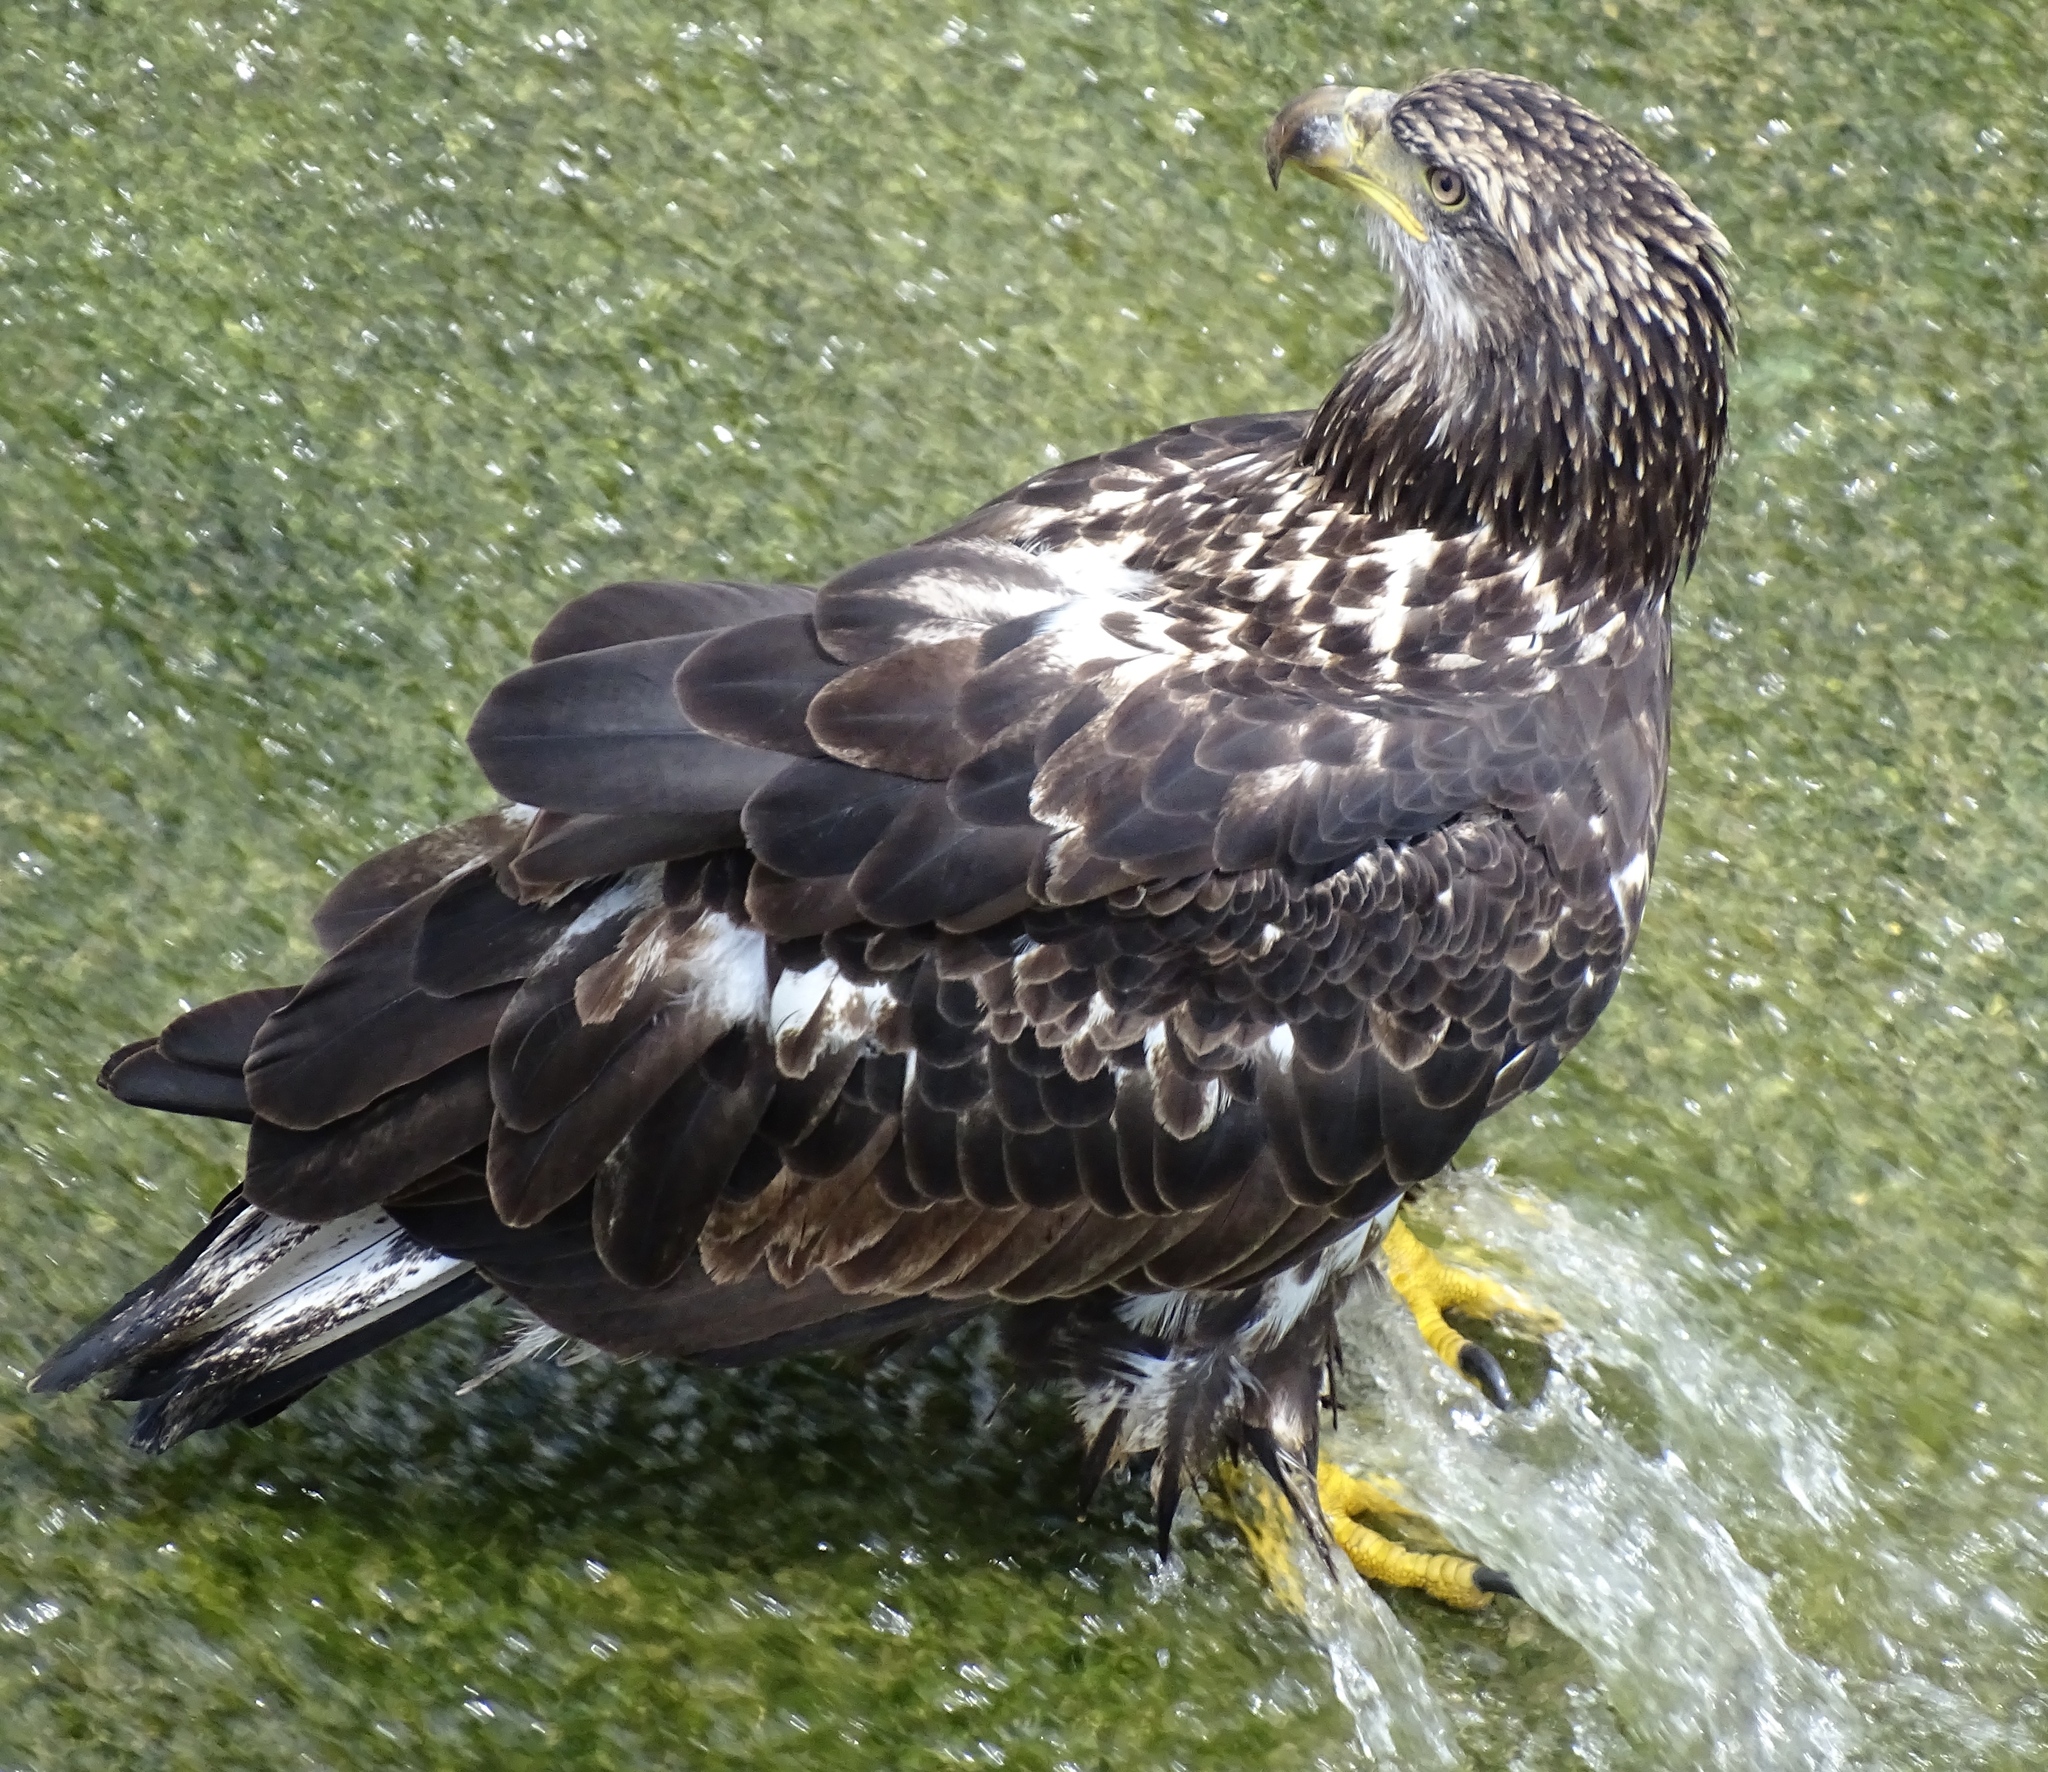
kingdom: Animalia
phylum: Chordata
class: Aves
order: Accipitriformes
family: Accipitridae
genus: Haliaeetus
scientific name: Haliaeetus leucocephalus
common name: Bald eagle
